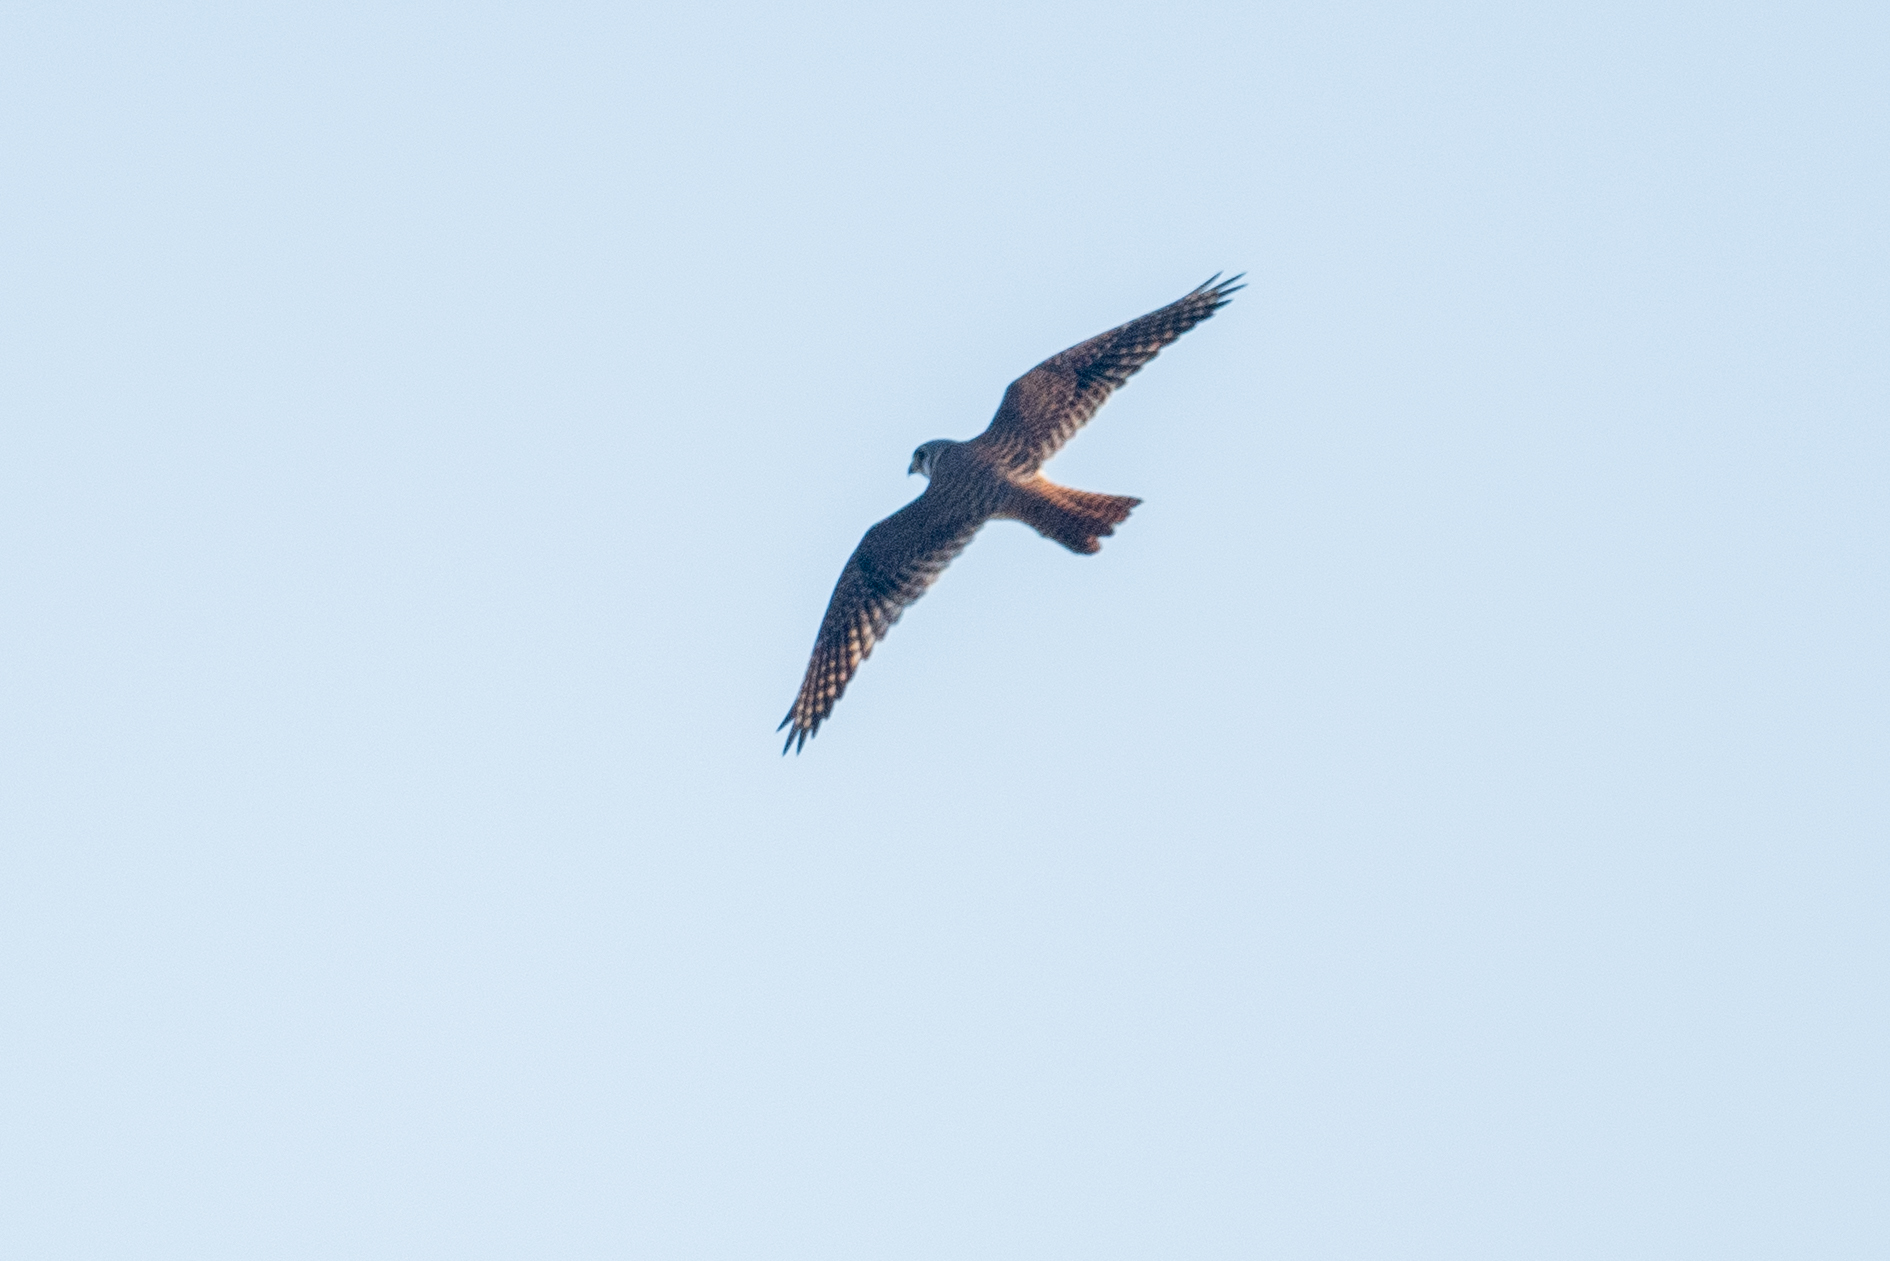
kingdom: Animalia
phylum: Chordata
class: Aves
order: Falconiformes
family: Falconidae
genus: Falco
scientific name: Falco sparverius
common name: American kestrel
